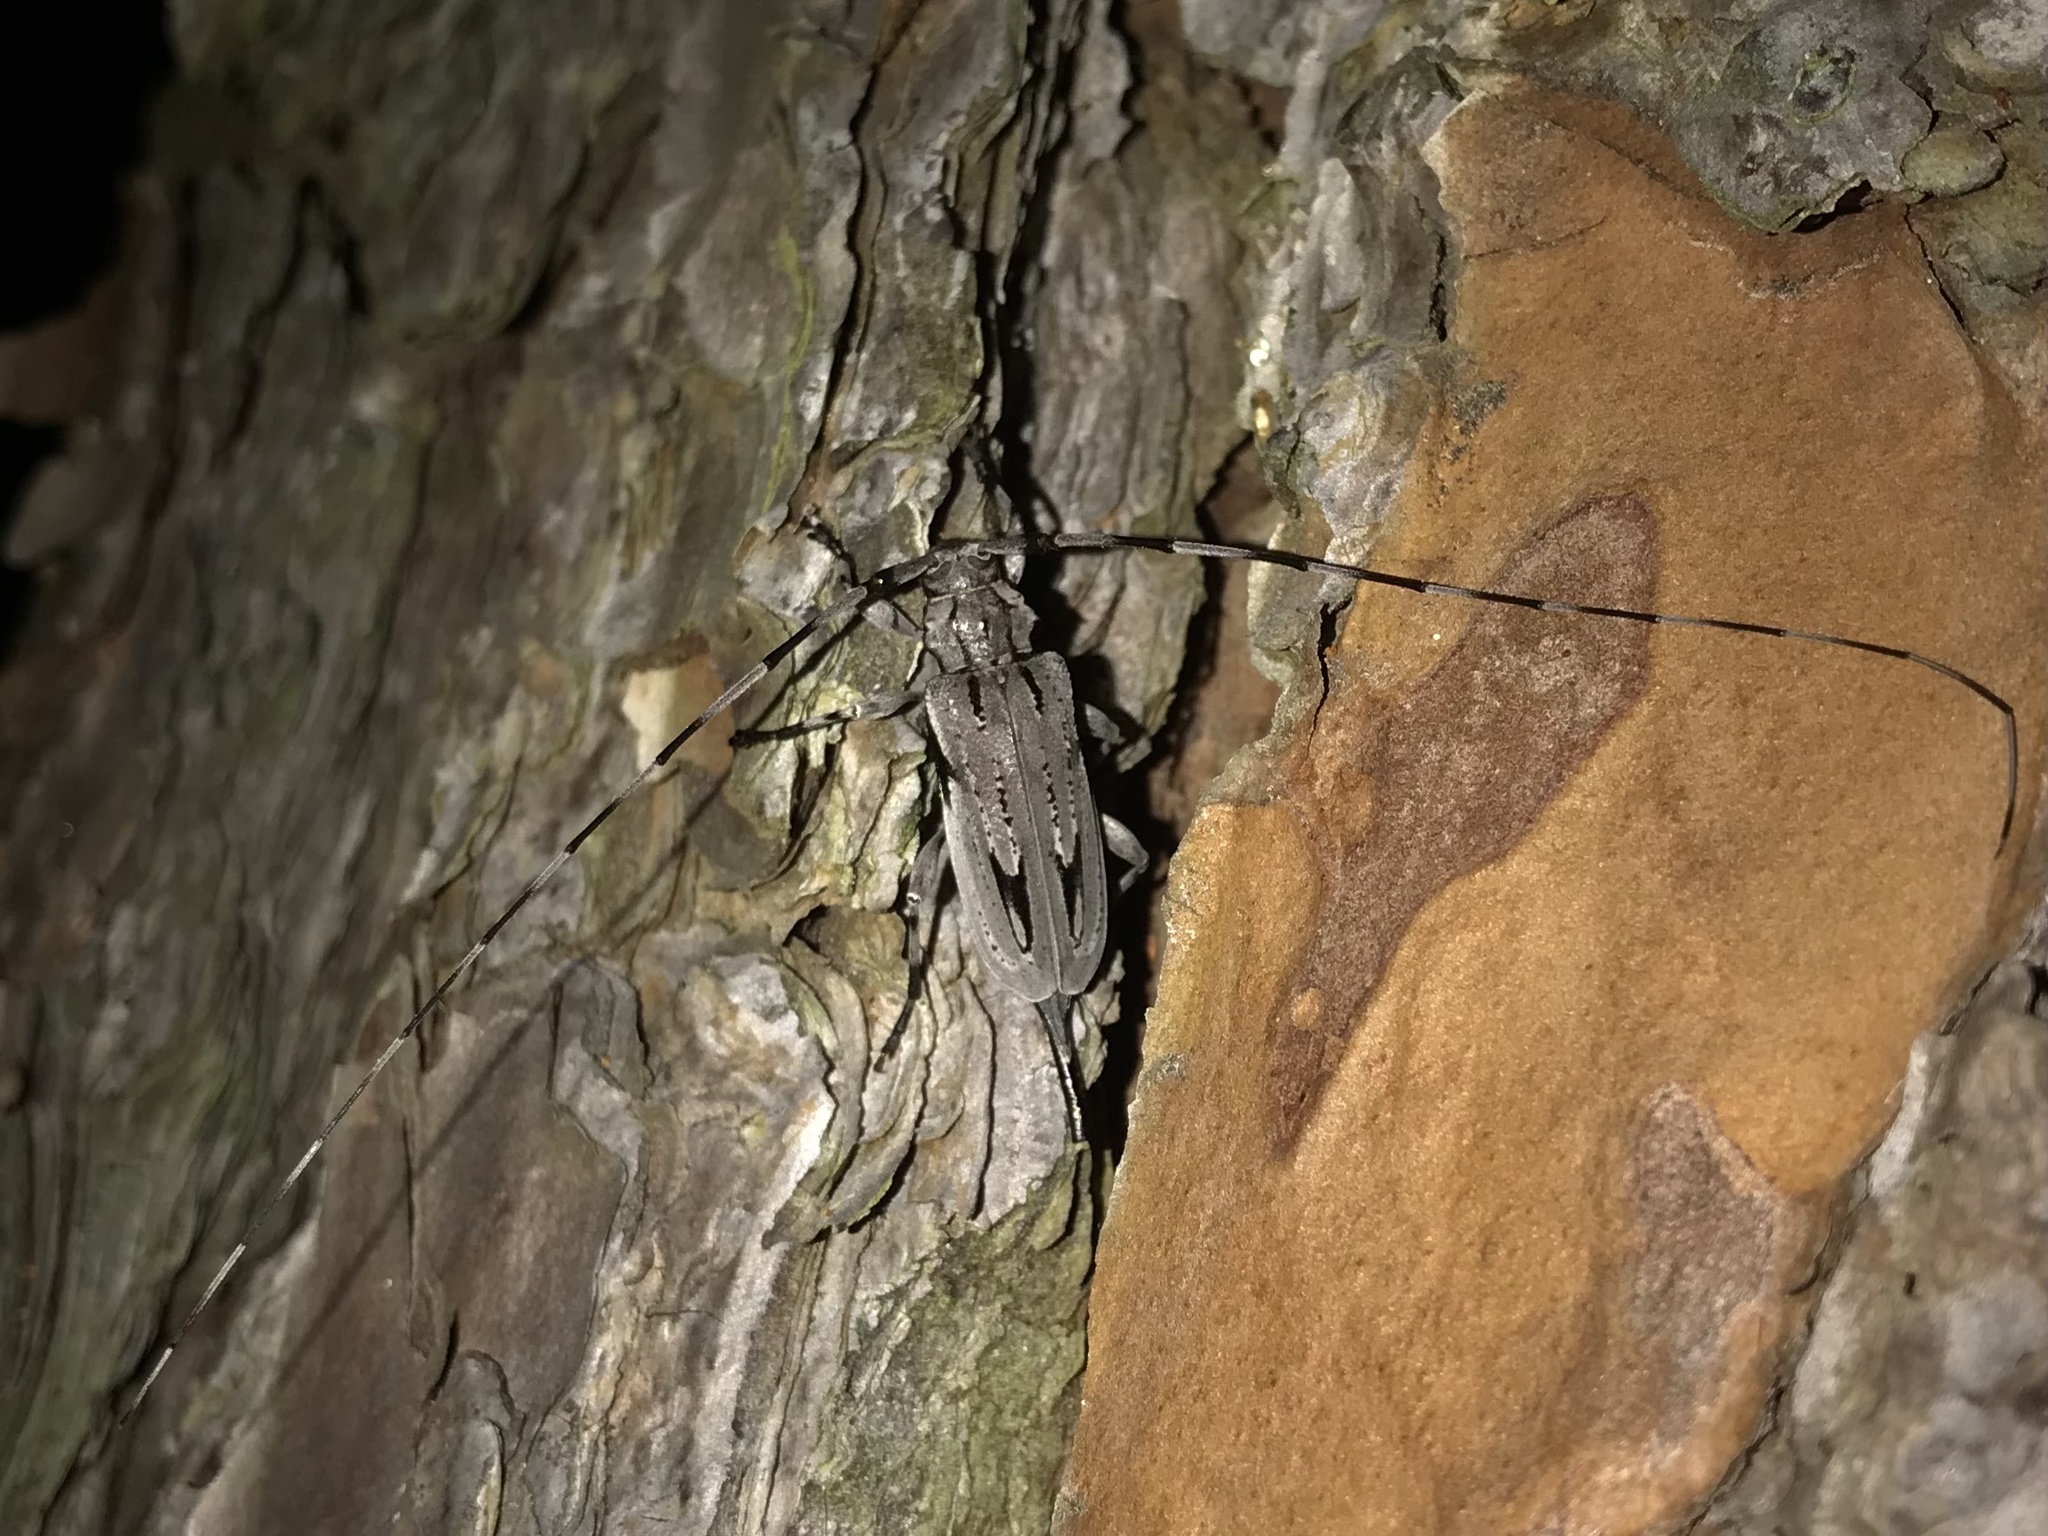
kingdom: Animalia
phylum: Arthropoda
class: Insecta
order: Coleoptera
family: Cerambycidae
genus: Acanthocinus
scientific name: Acanthocinus nodosus
